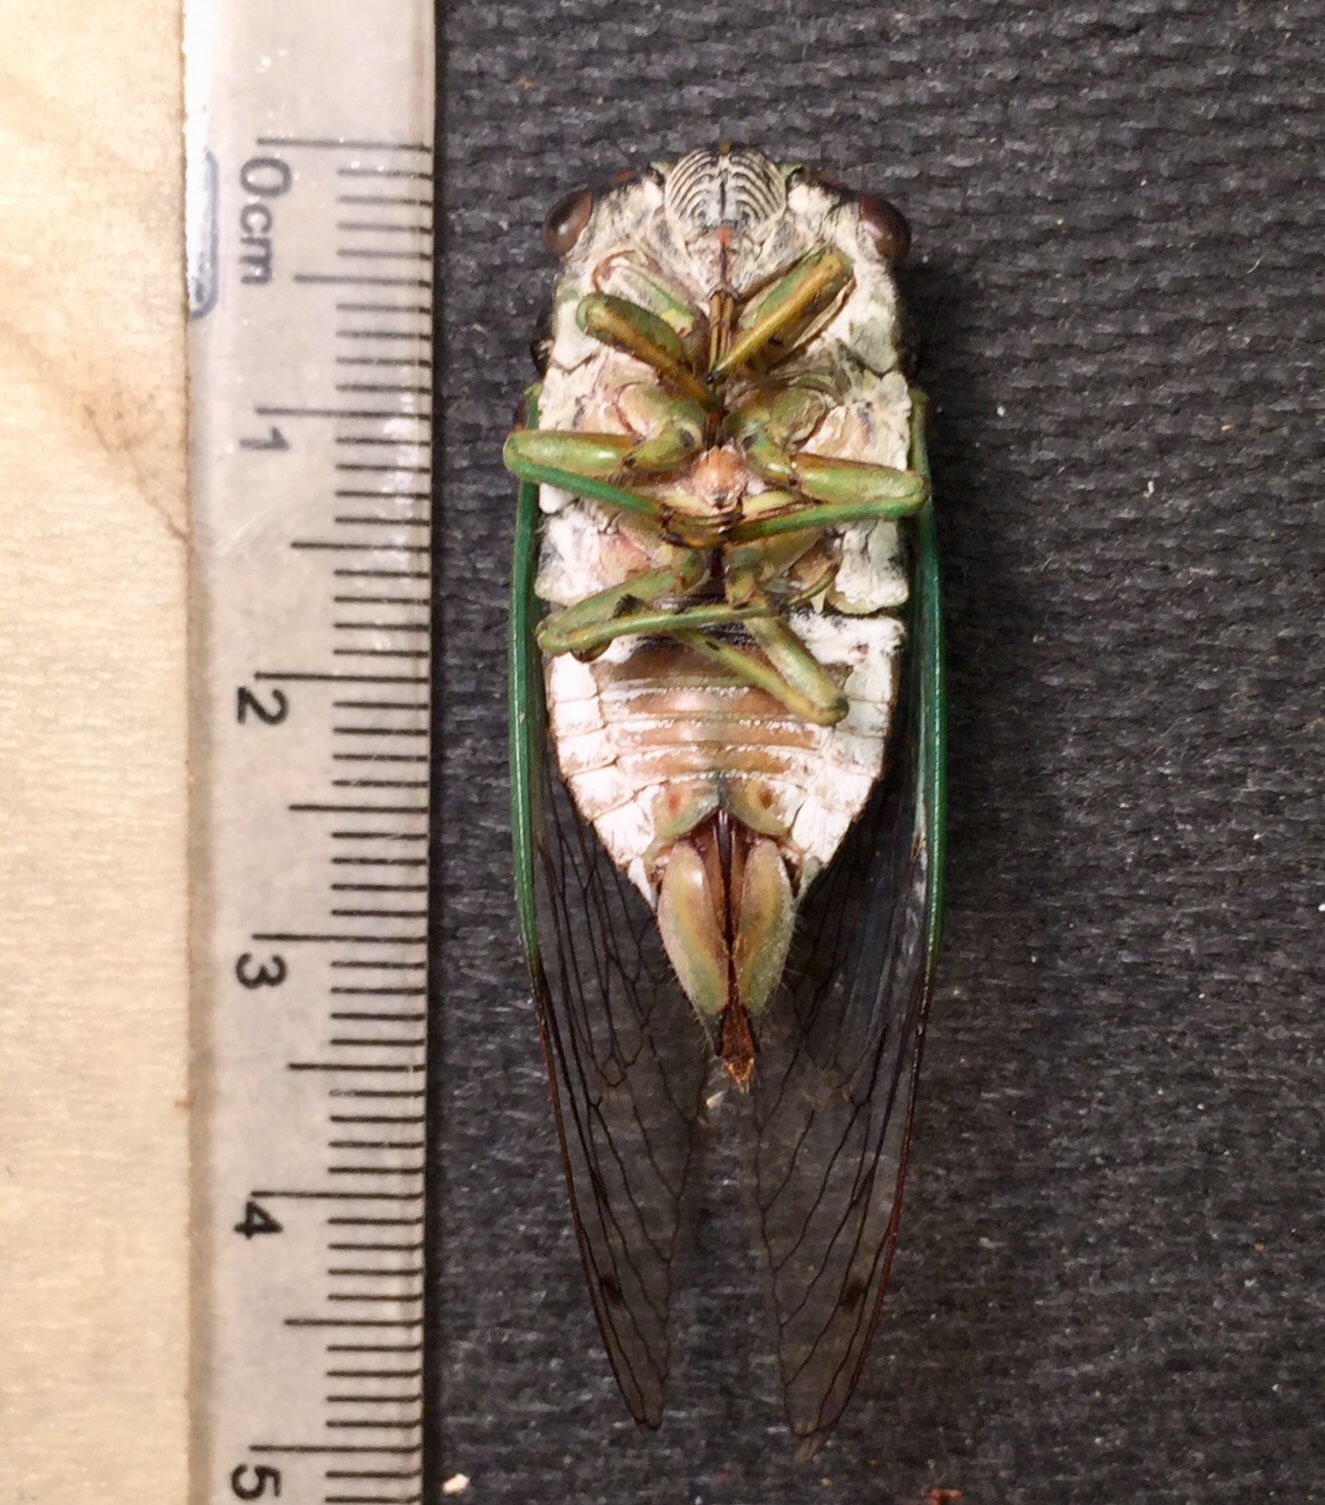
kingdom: Animalia
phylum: Arthropoda
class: Insecta
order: Hemiptera
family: Cicadidae
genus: Neotibicen
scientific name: Neotibicen tibicen
